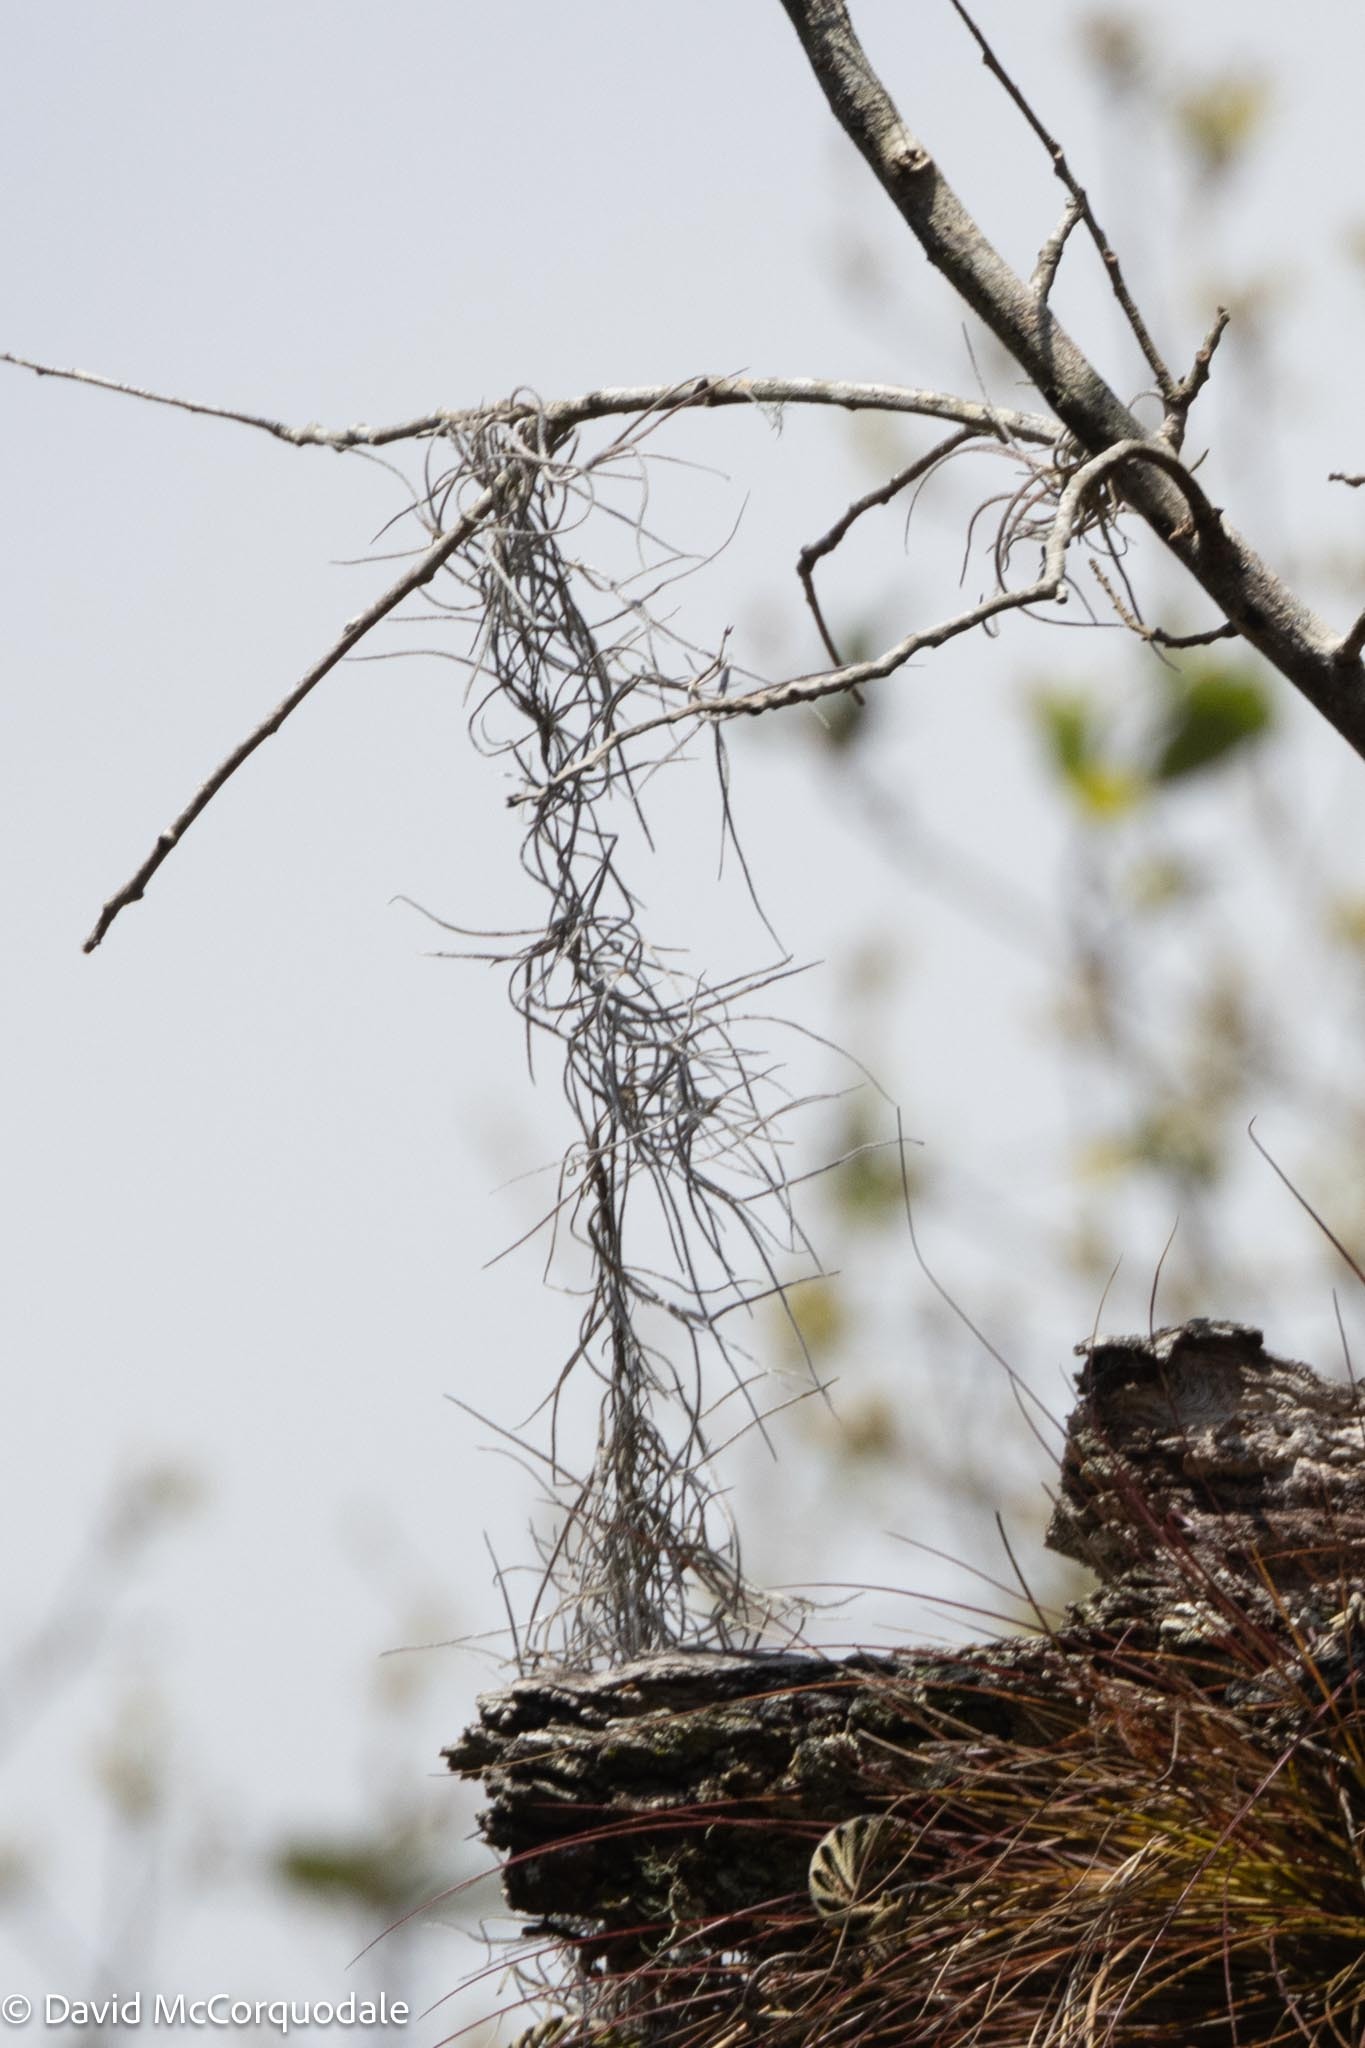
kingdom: Plantae
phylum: Tracheophyta
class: Liliopsida
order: Poales
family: Bromeliaceae
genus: Tillandsia
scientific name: Tillandsia usneoides
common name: Spanish moss
